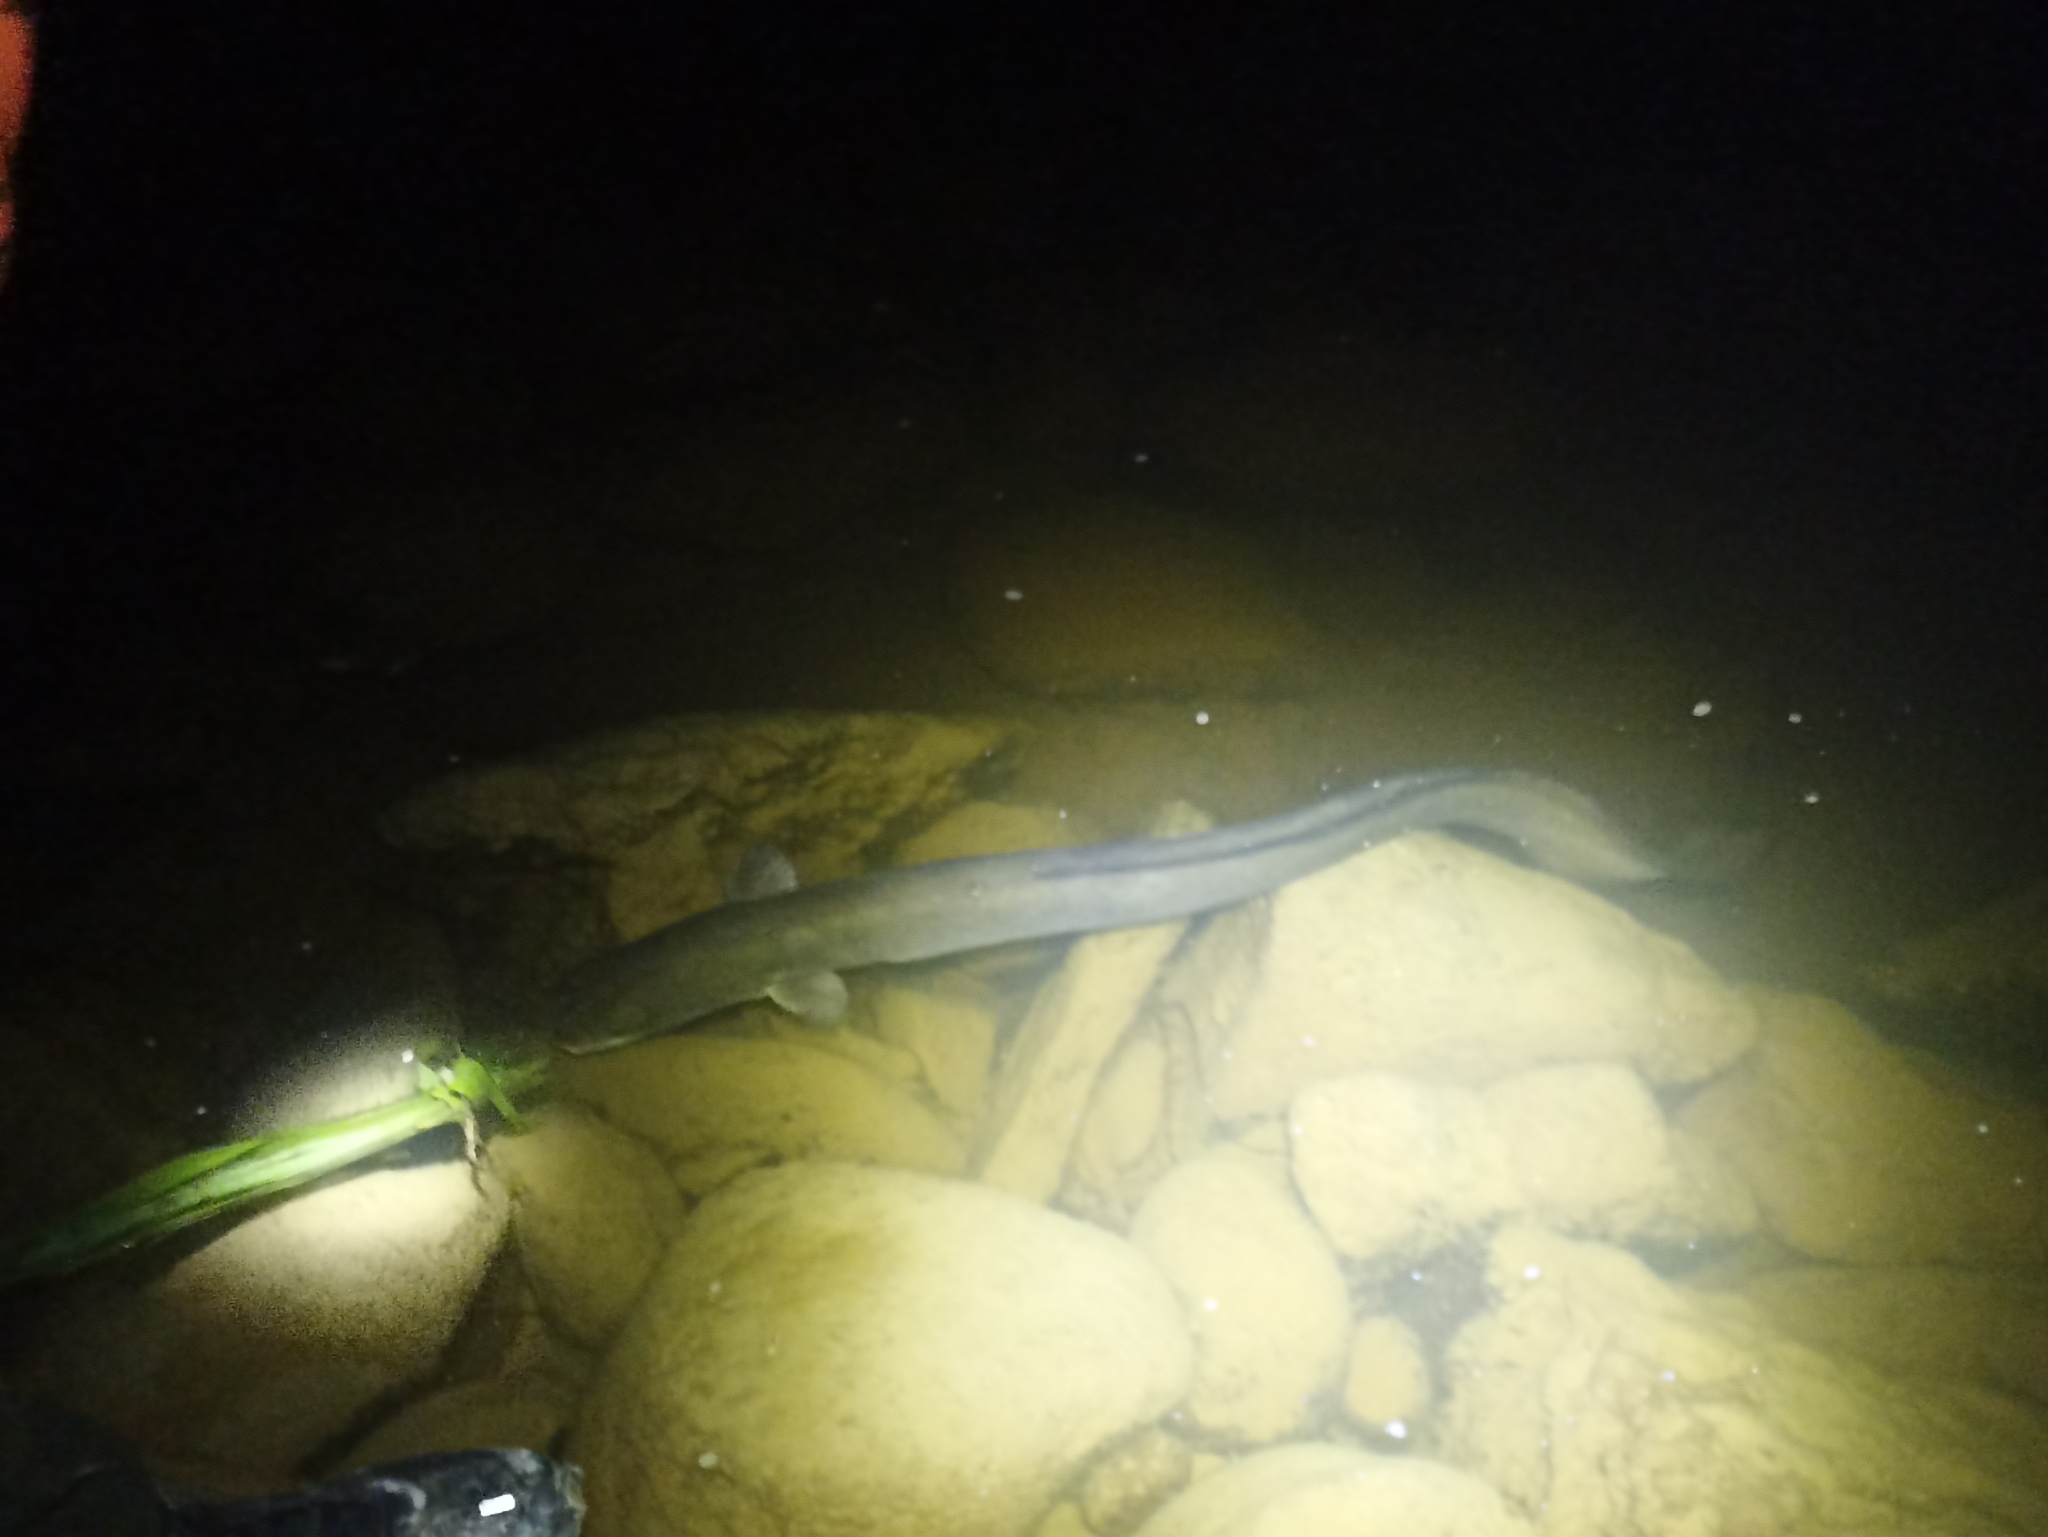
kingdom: Animalia
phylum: Chordata
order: Anguilliformes
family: Anguillidae
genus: Anguilla
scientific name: Anguilla dieffenbachii
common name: New zealand longfin eel
